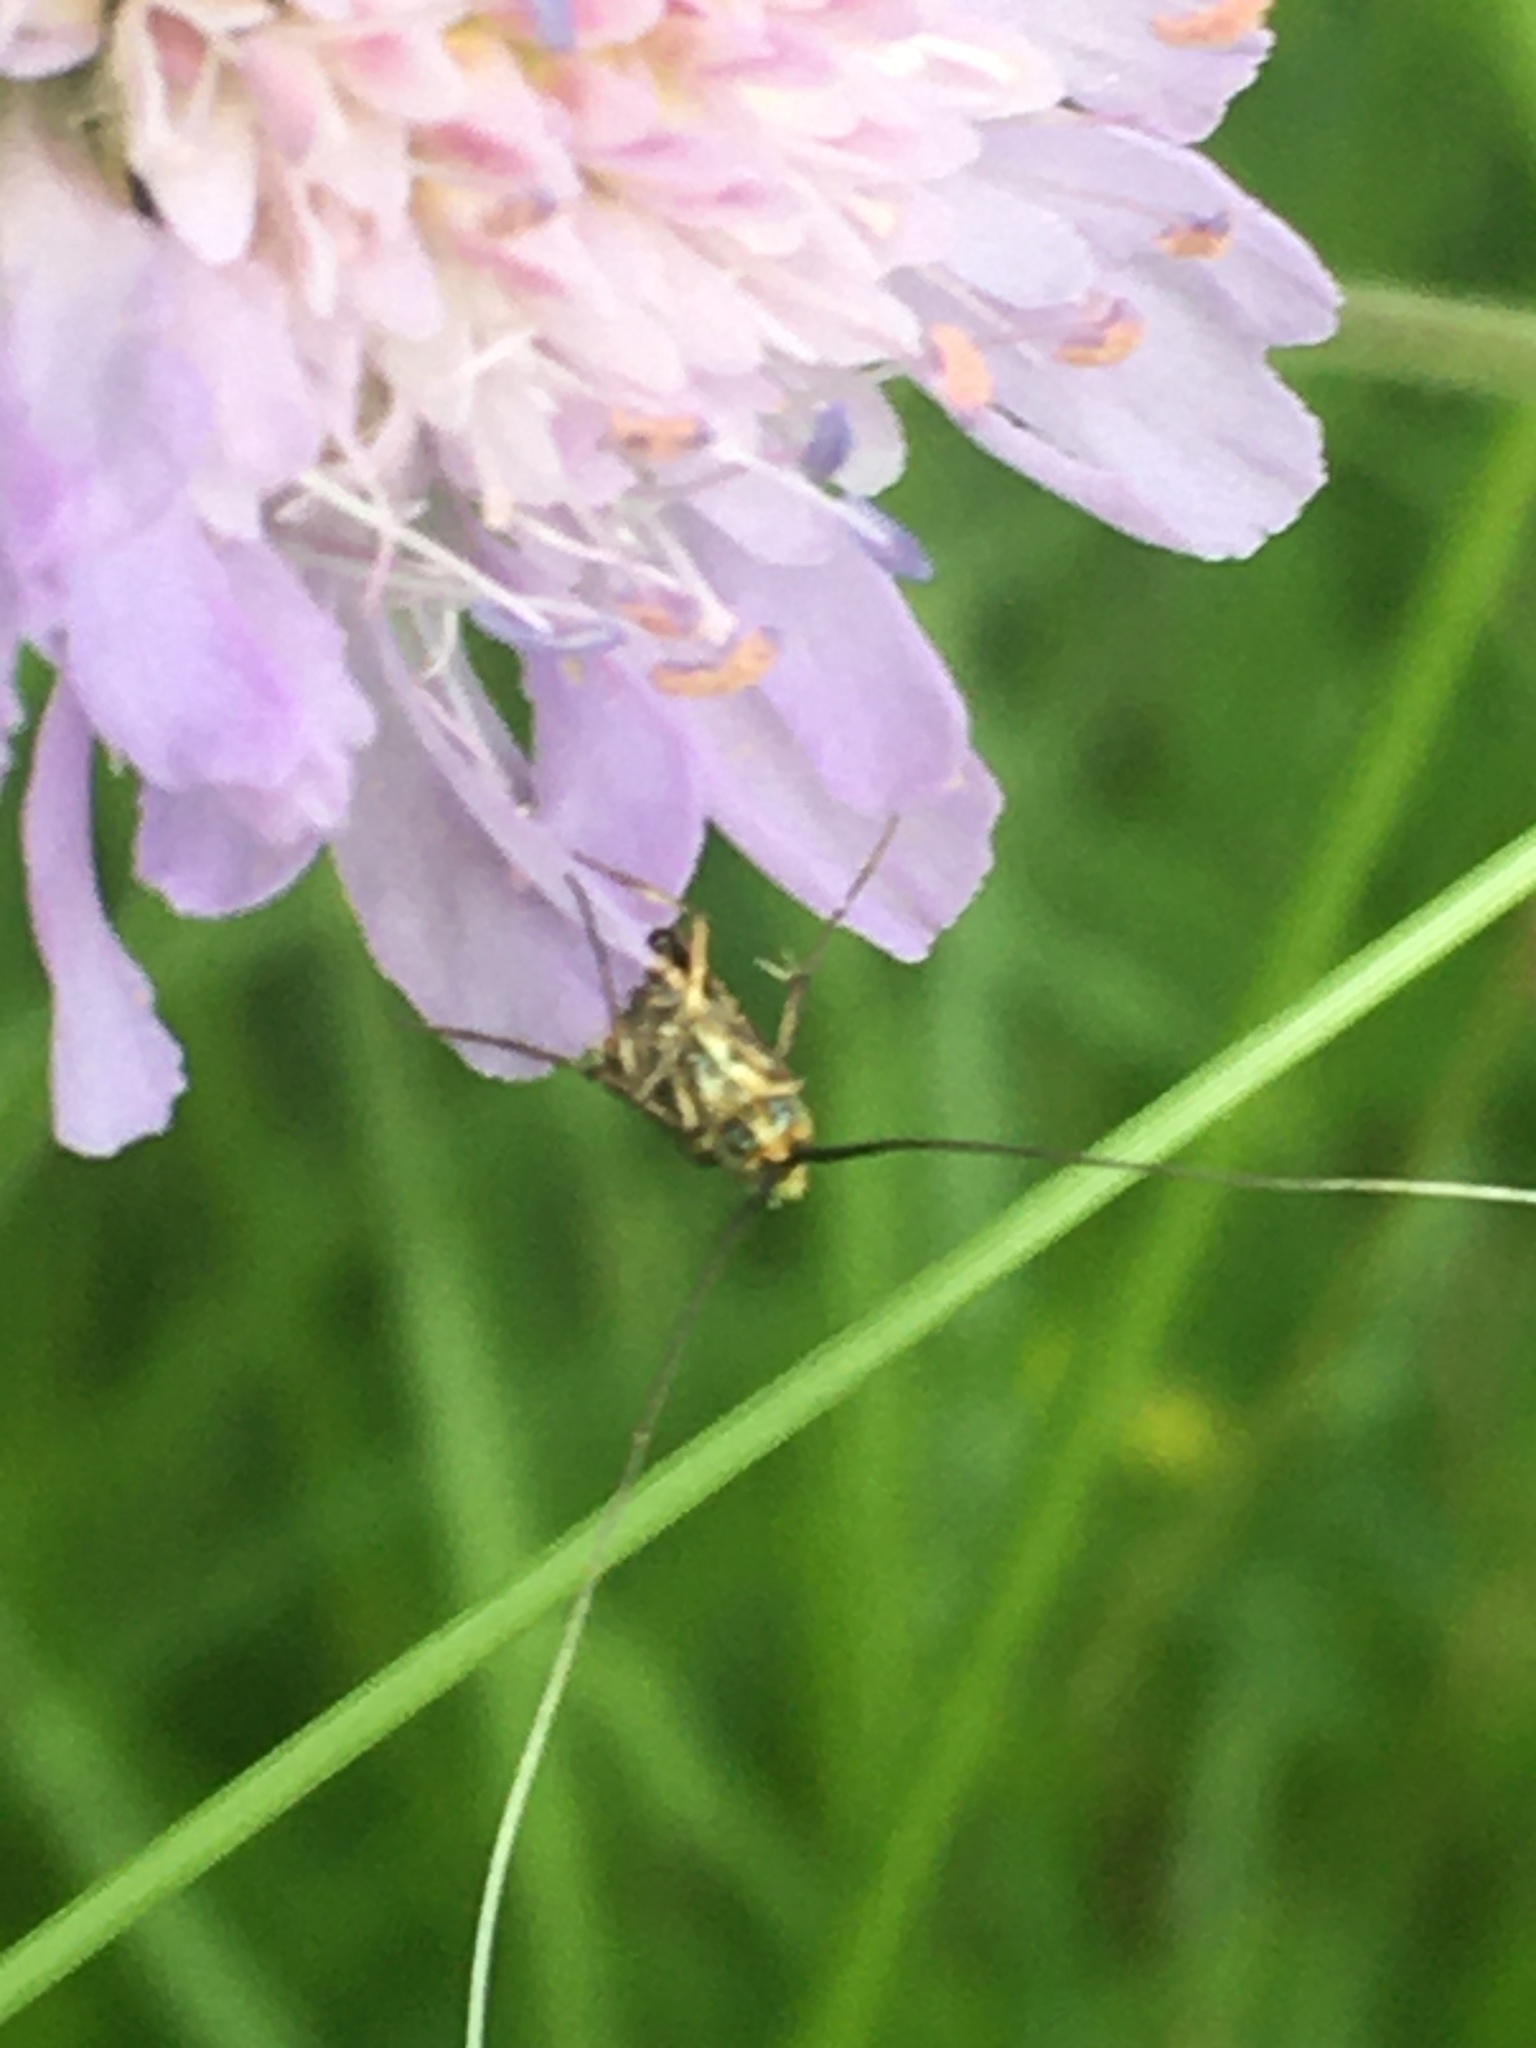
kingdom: Animalia
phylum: Arthropoda
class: Insecta
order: Lepidoptera
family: Adelidae
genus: Nemophora
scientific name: Nemophora metallica
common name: Brassy long-horn
